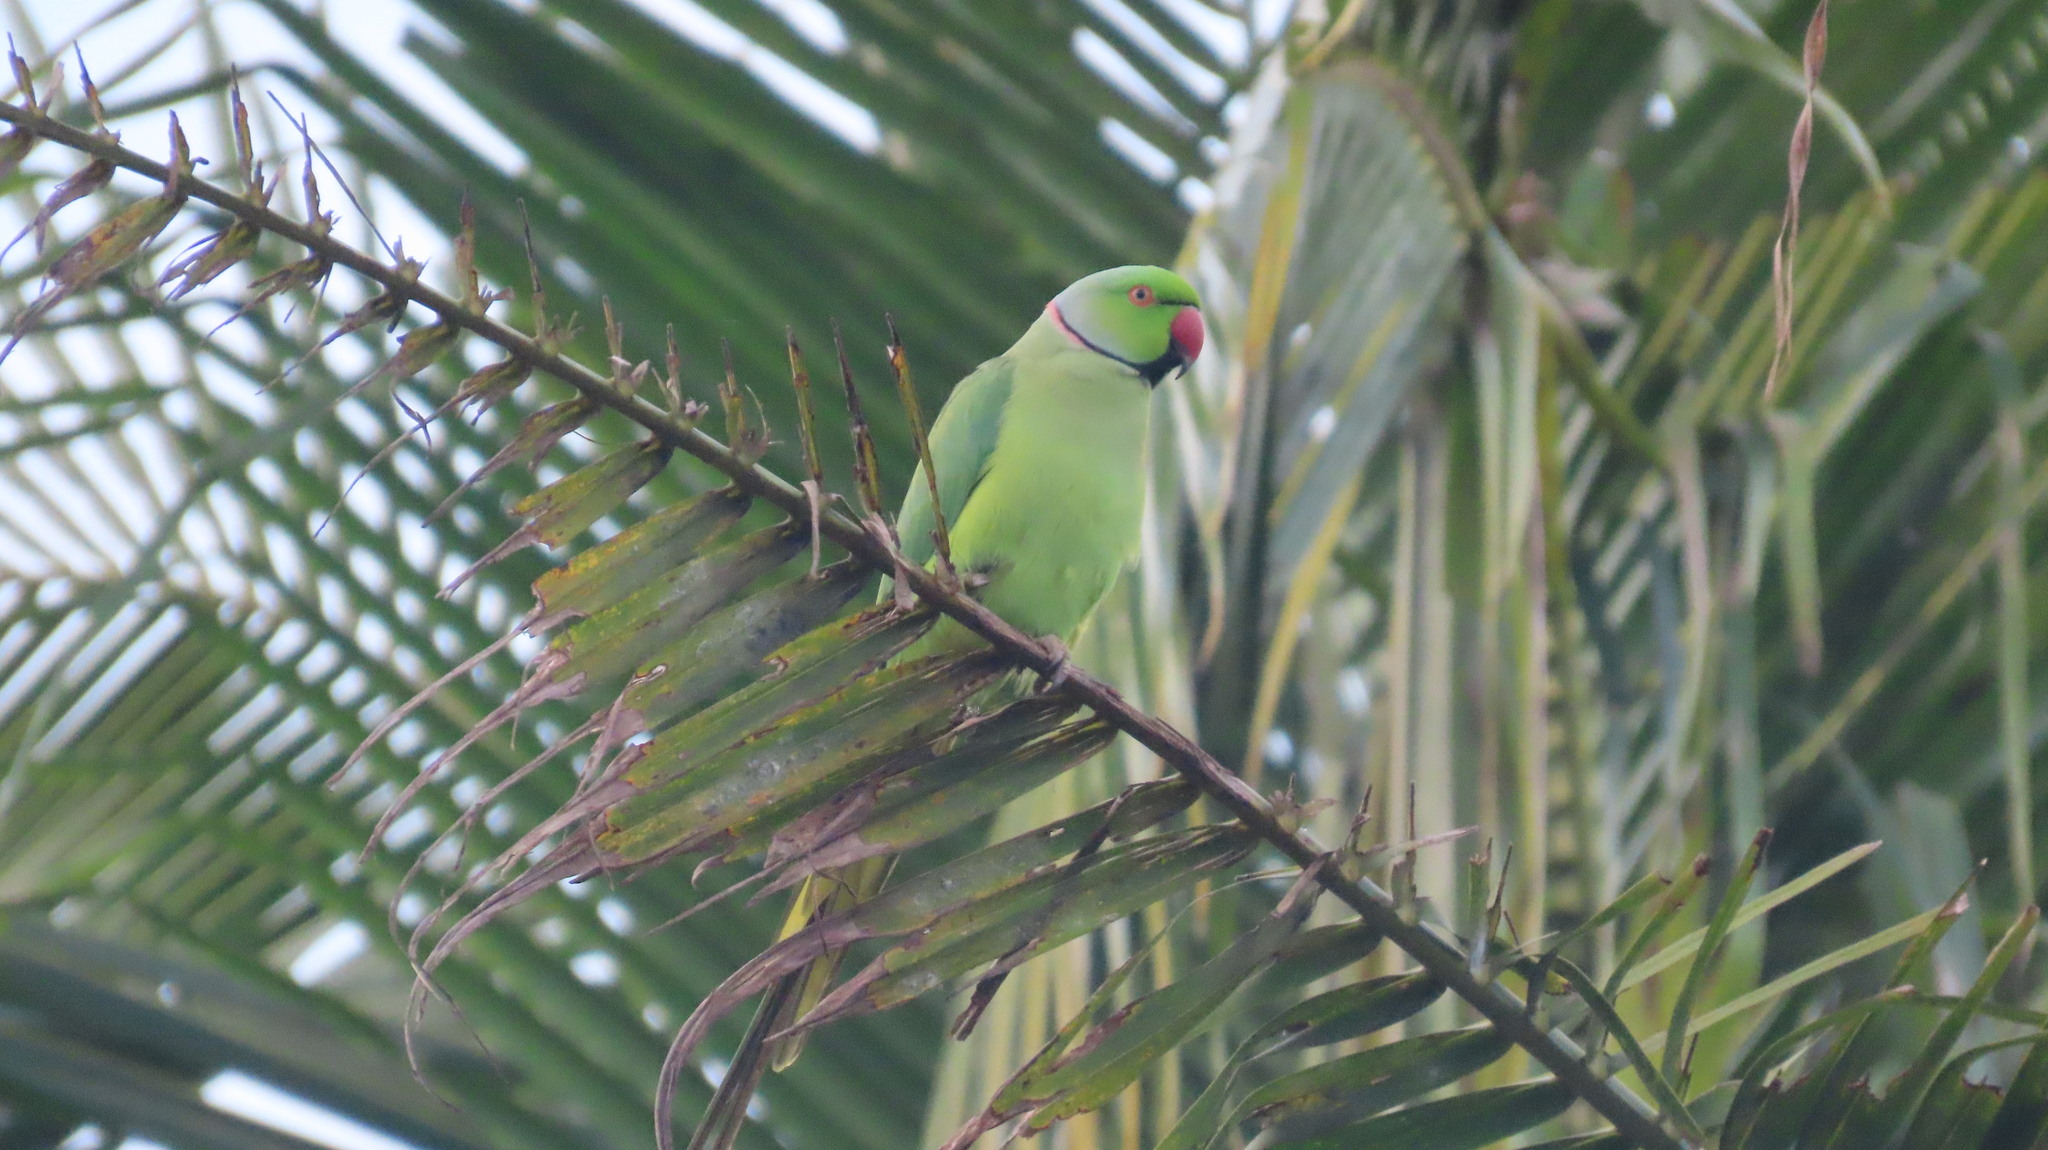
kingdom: Animalia
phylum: Chordata
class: Aves
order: Psittaciformes
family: Psittacidae
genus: Psittacula
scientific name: Psittacula krameri
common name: Rose-ringed parakeet
